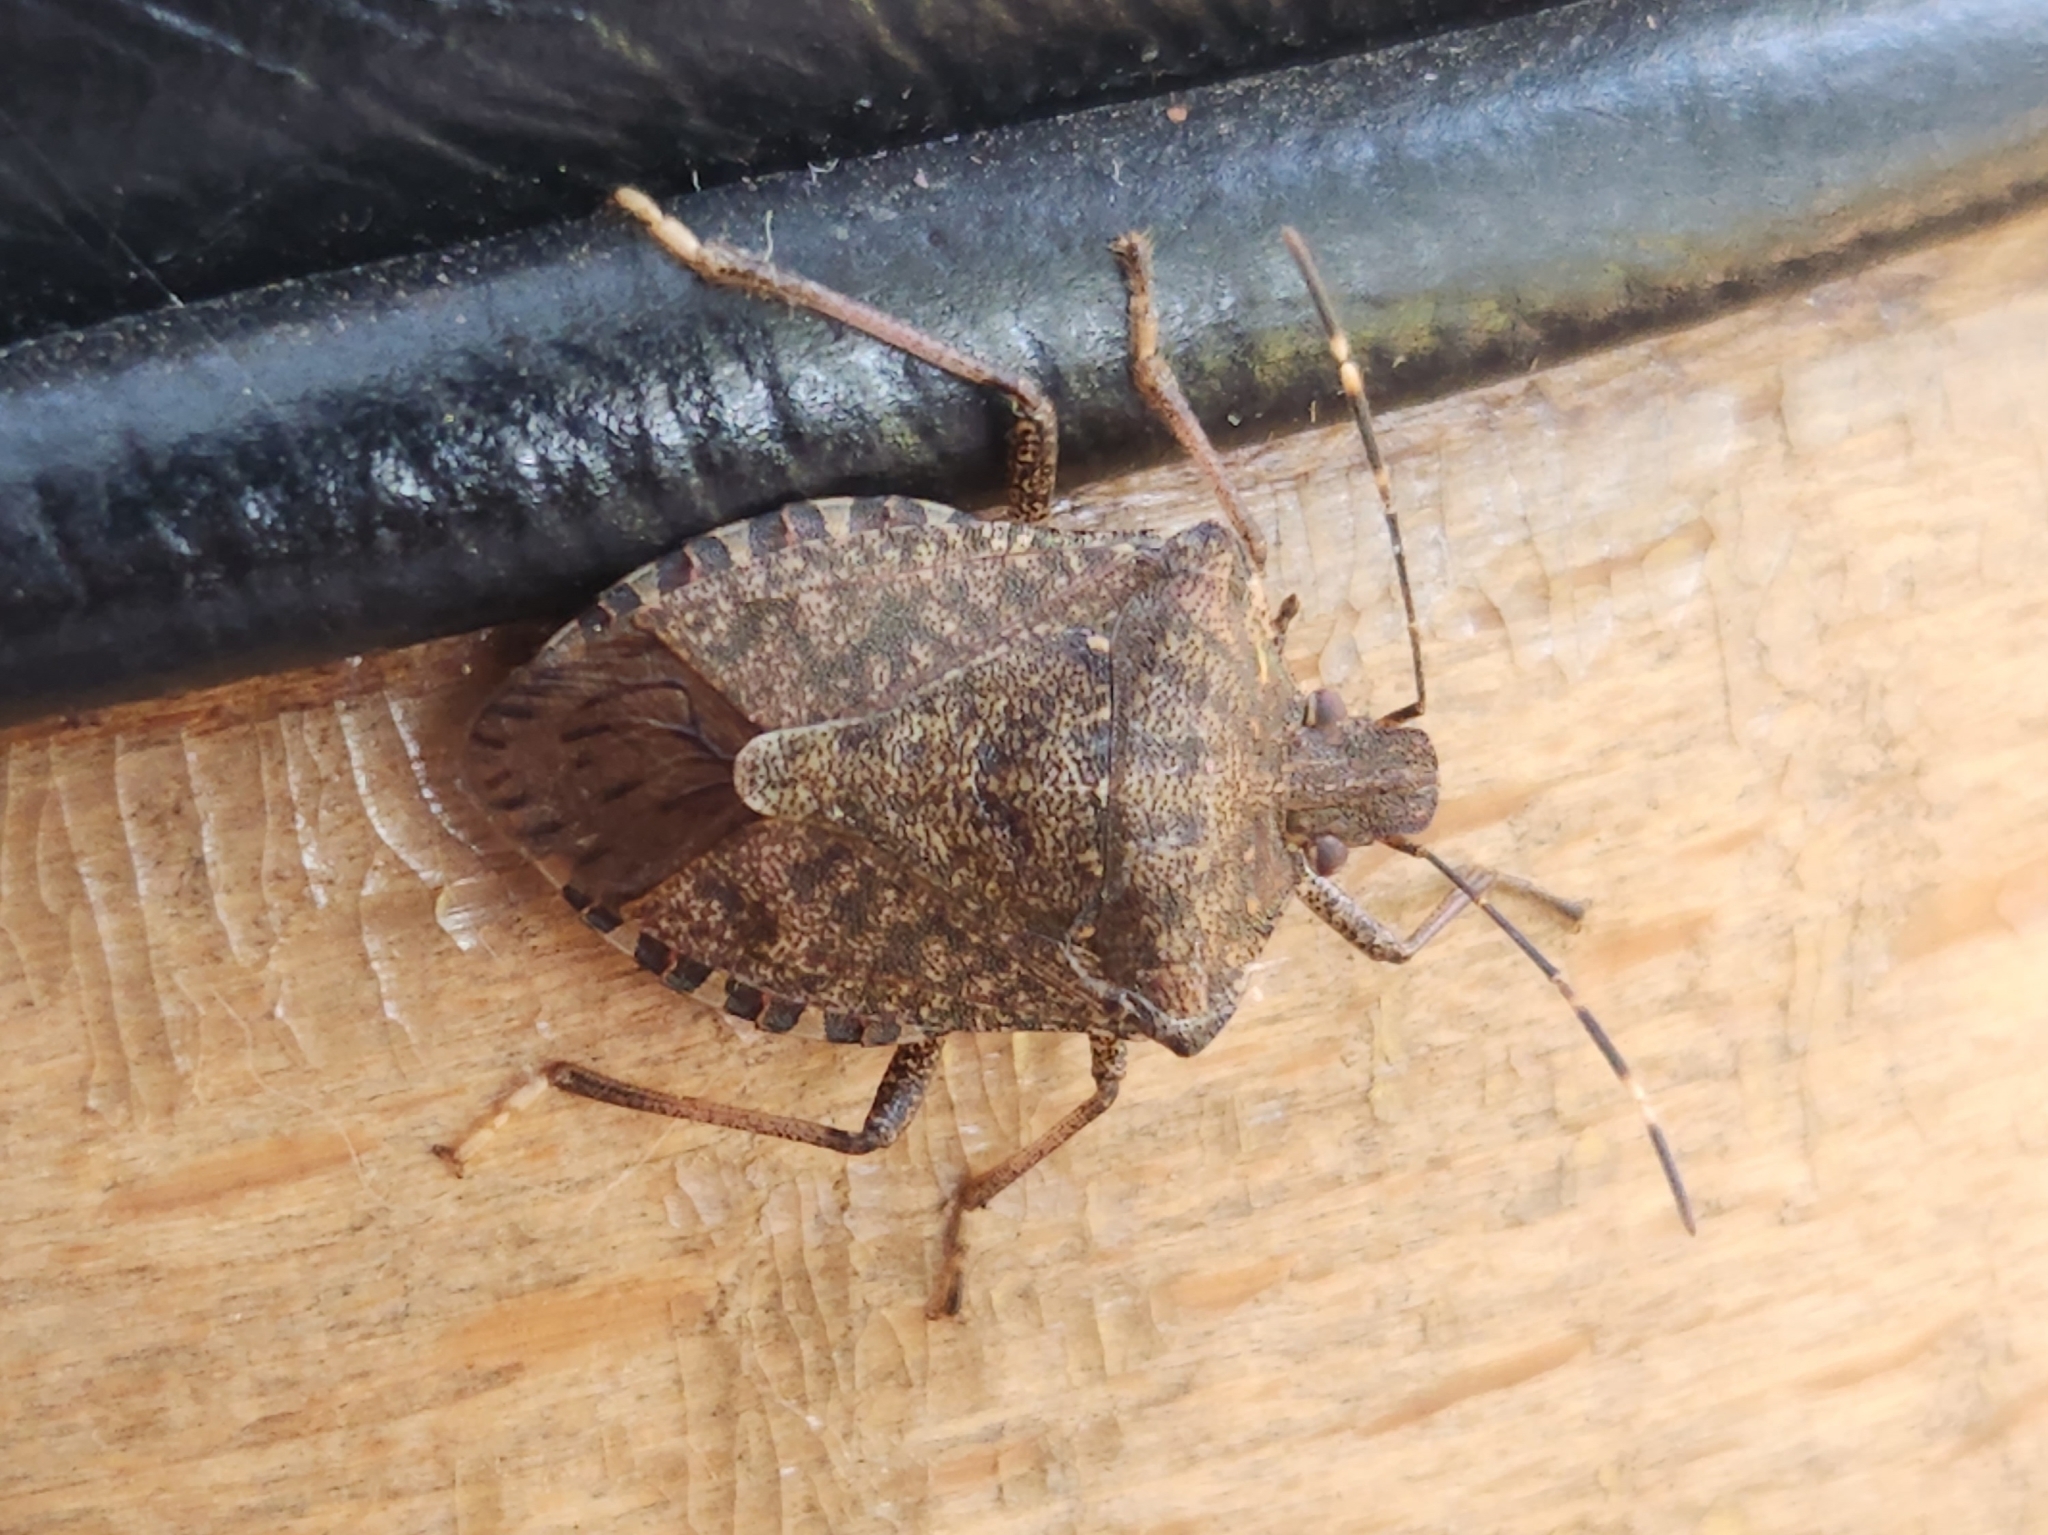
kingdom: Animalia
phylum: Arthropoda
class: Insecta
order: Hemiptera
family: Pentatomidae
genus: Halyomorpha
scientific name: Halyomorpha halys
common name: Brown marmorated stink bug
